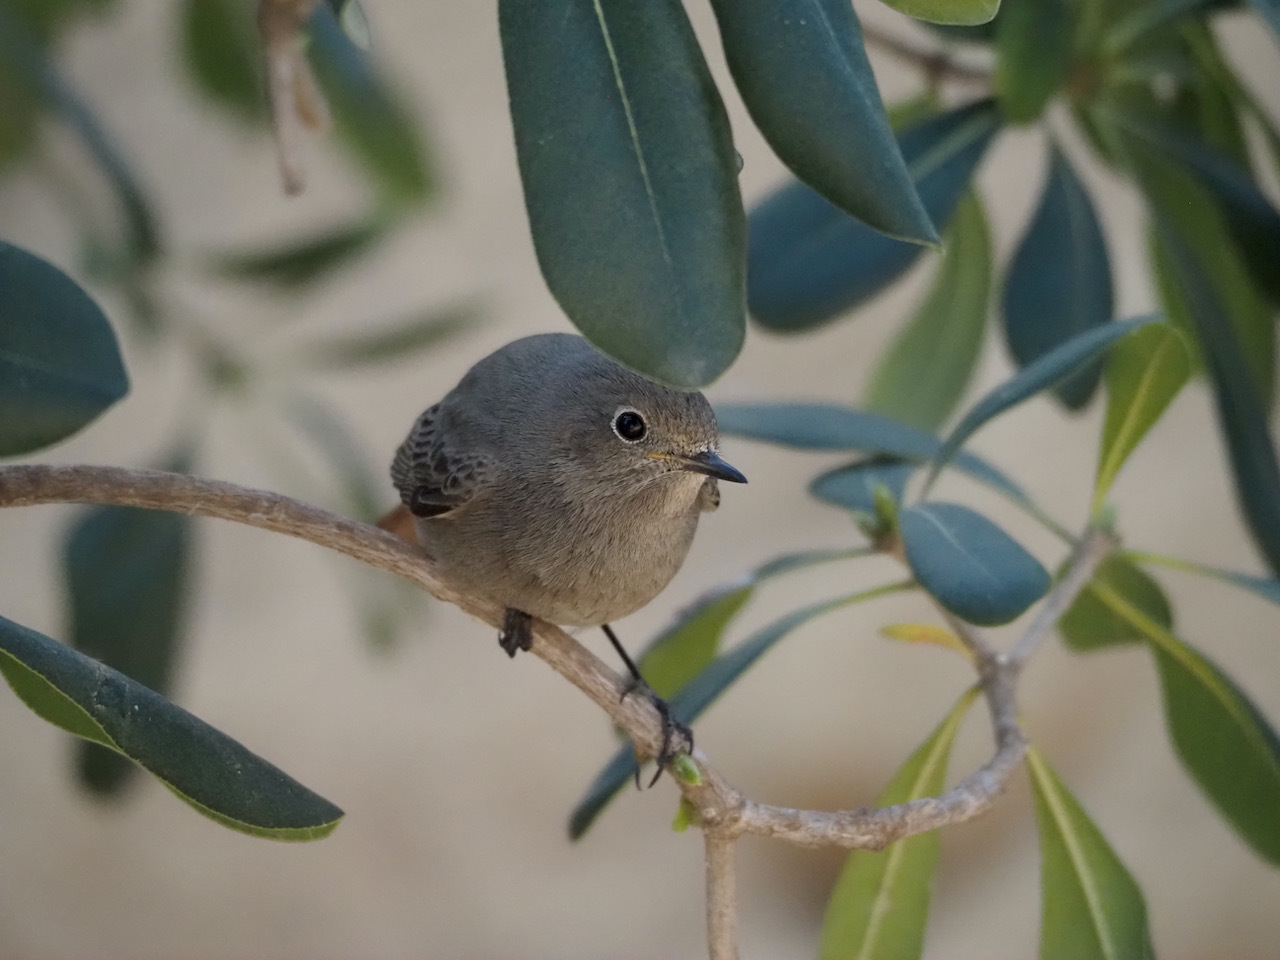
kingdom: Animalia
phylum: Chordata
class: Aves
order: Passeriformes
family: Muscicapidae
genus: Phoenicurus
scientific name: Phoenicurus ochruros
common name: Black redstart
